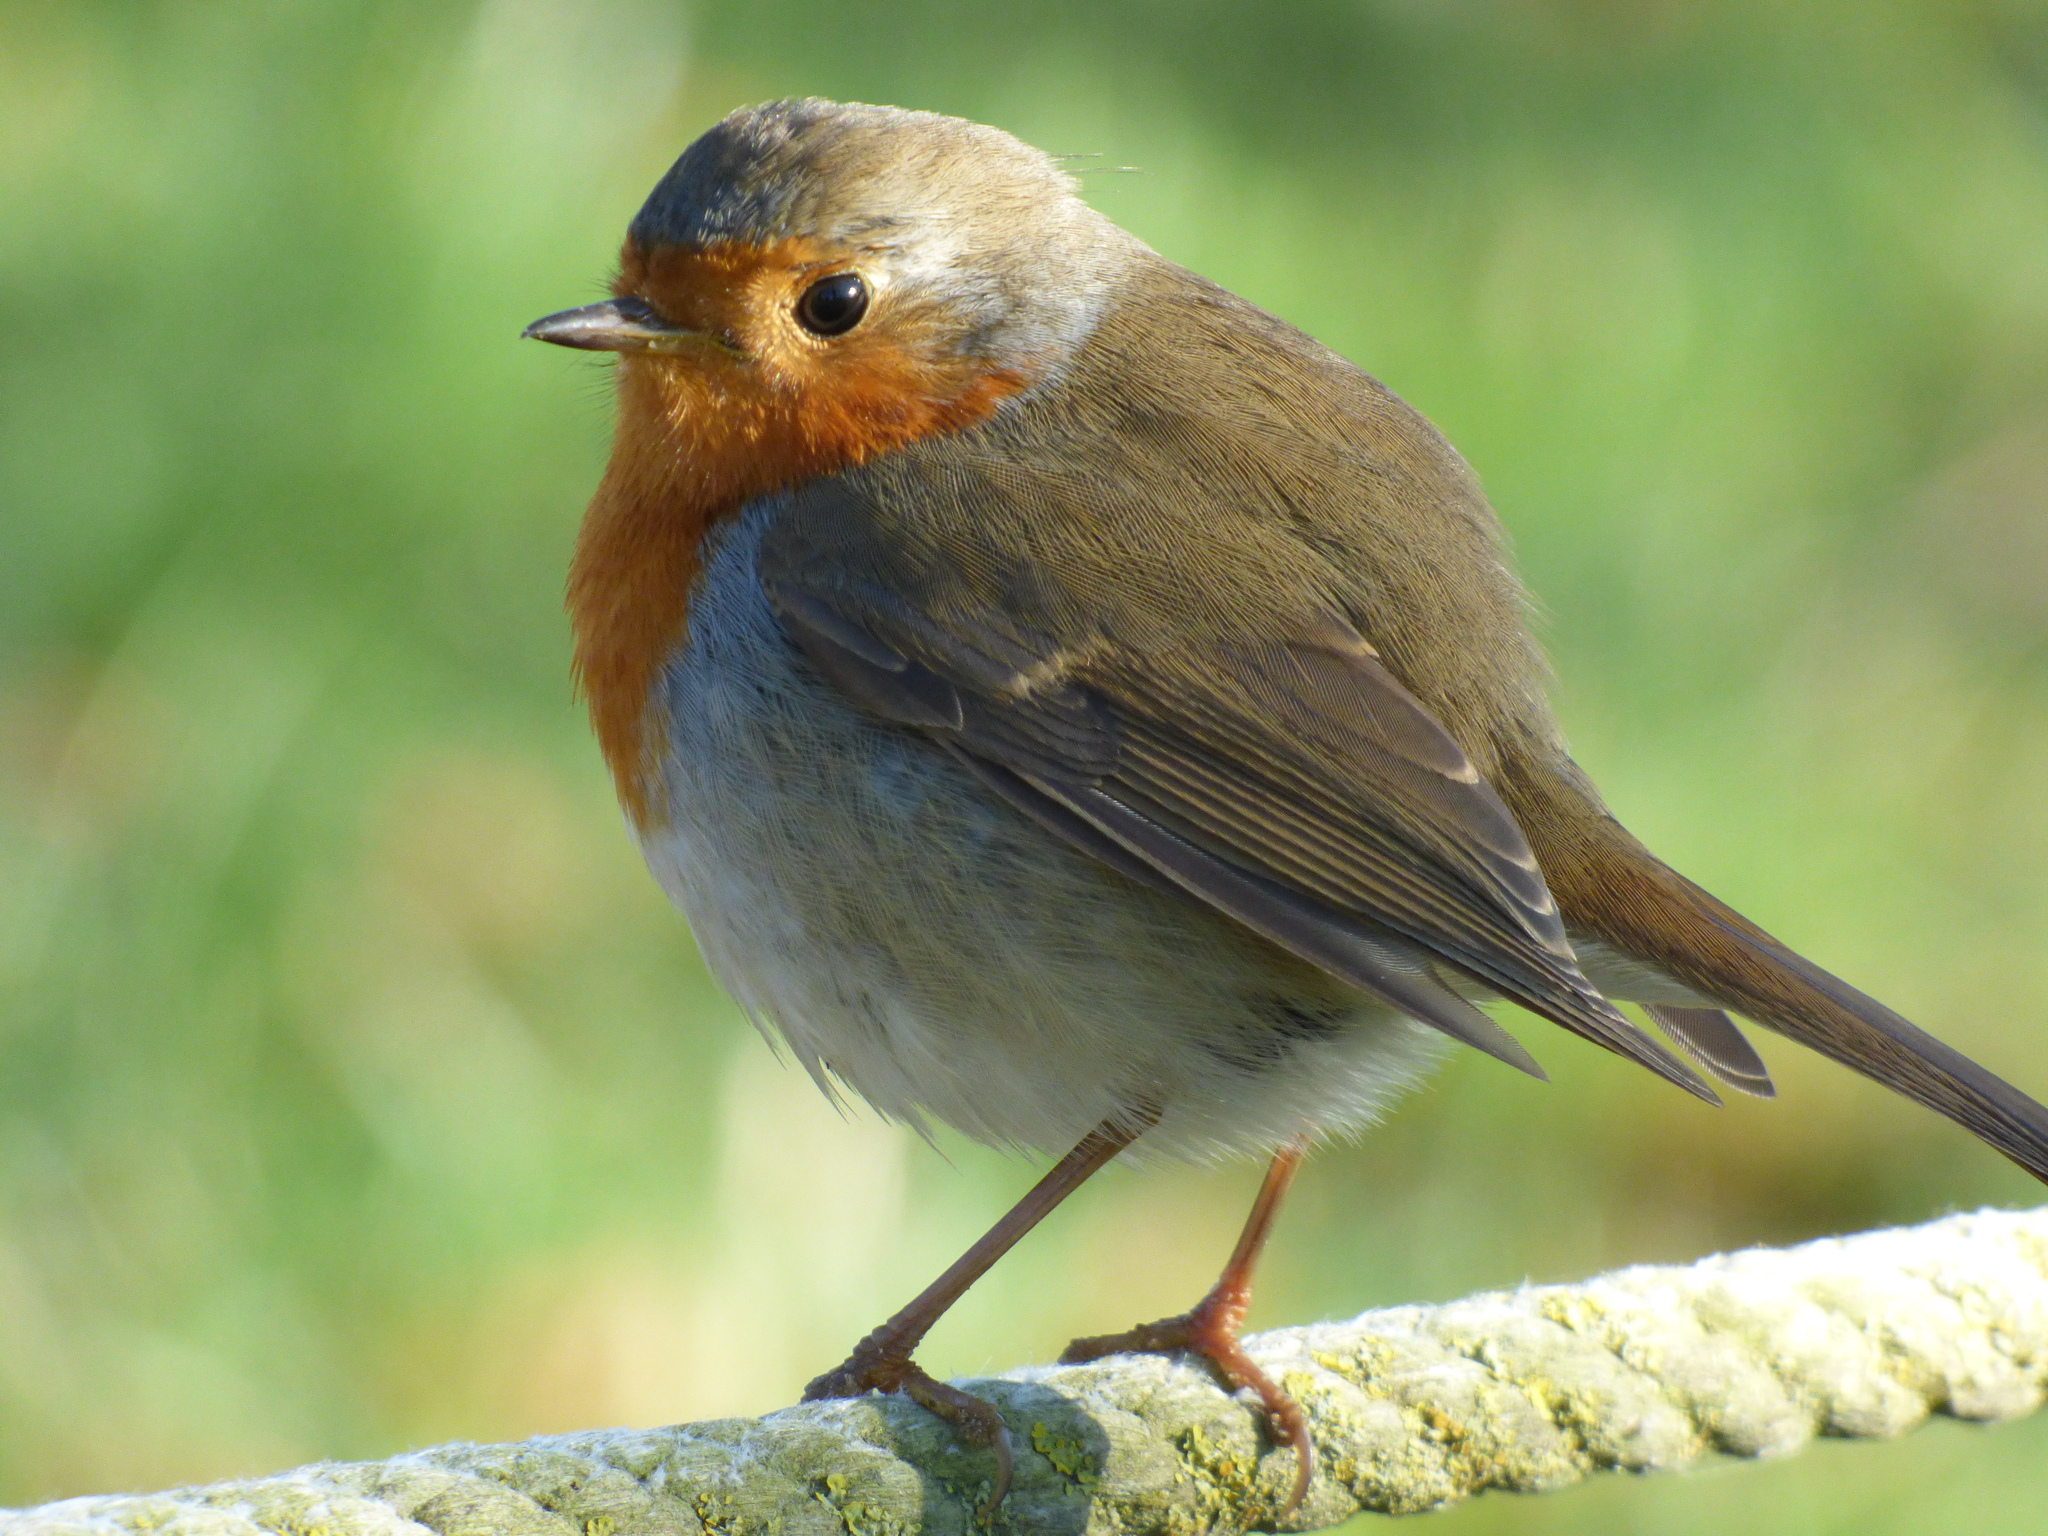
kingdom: Animalia
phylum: Chordata
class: Aves
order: Passeriformes
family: Muscicapidae
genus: Erithacus
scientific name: Erithacus rubecula
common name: European robin
